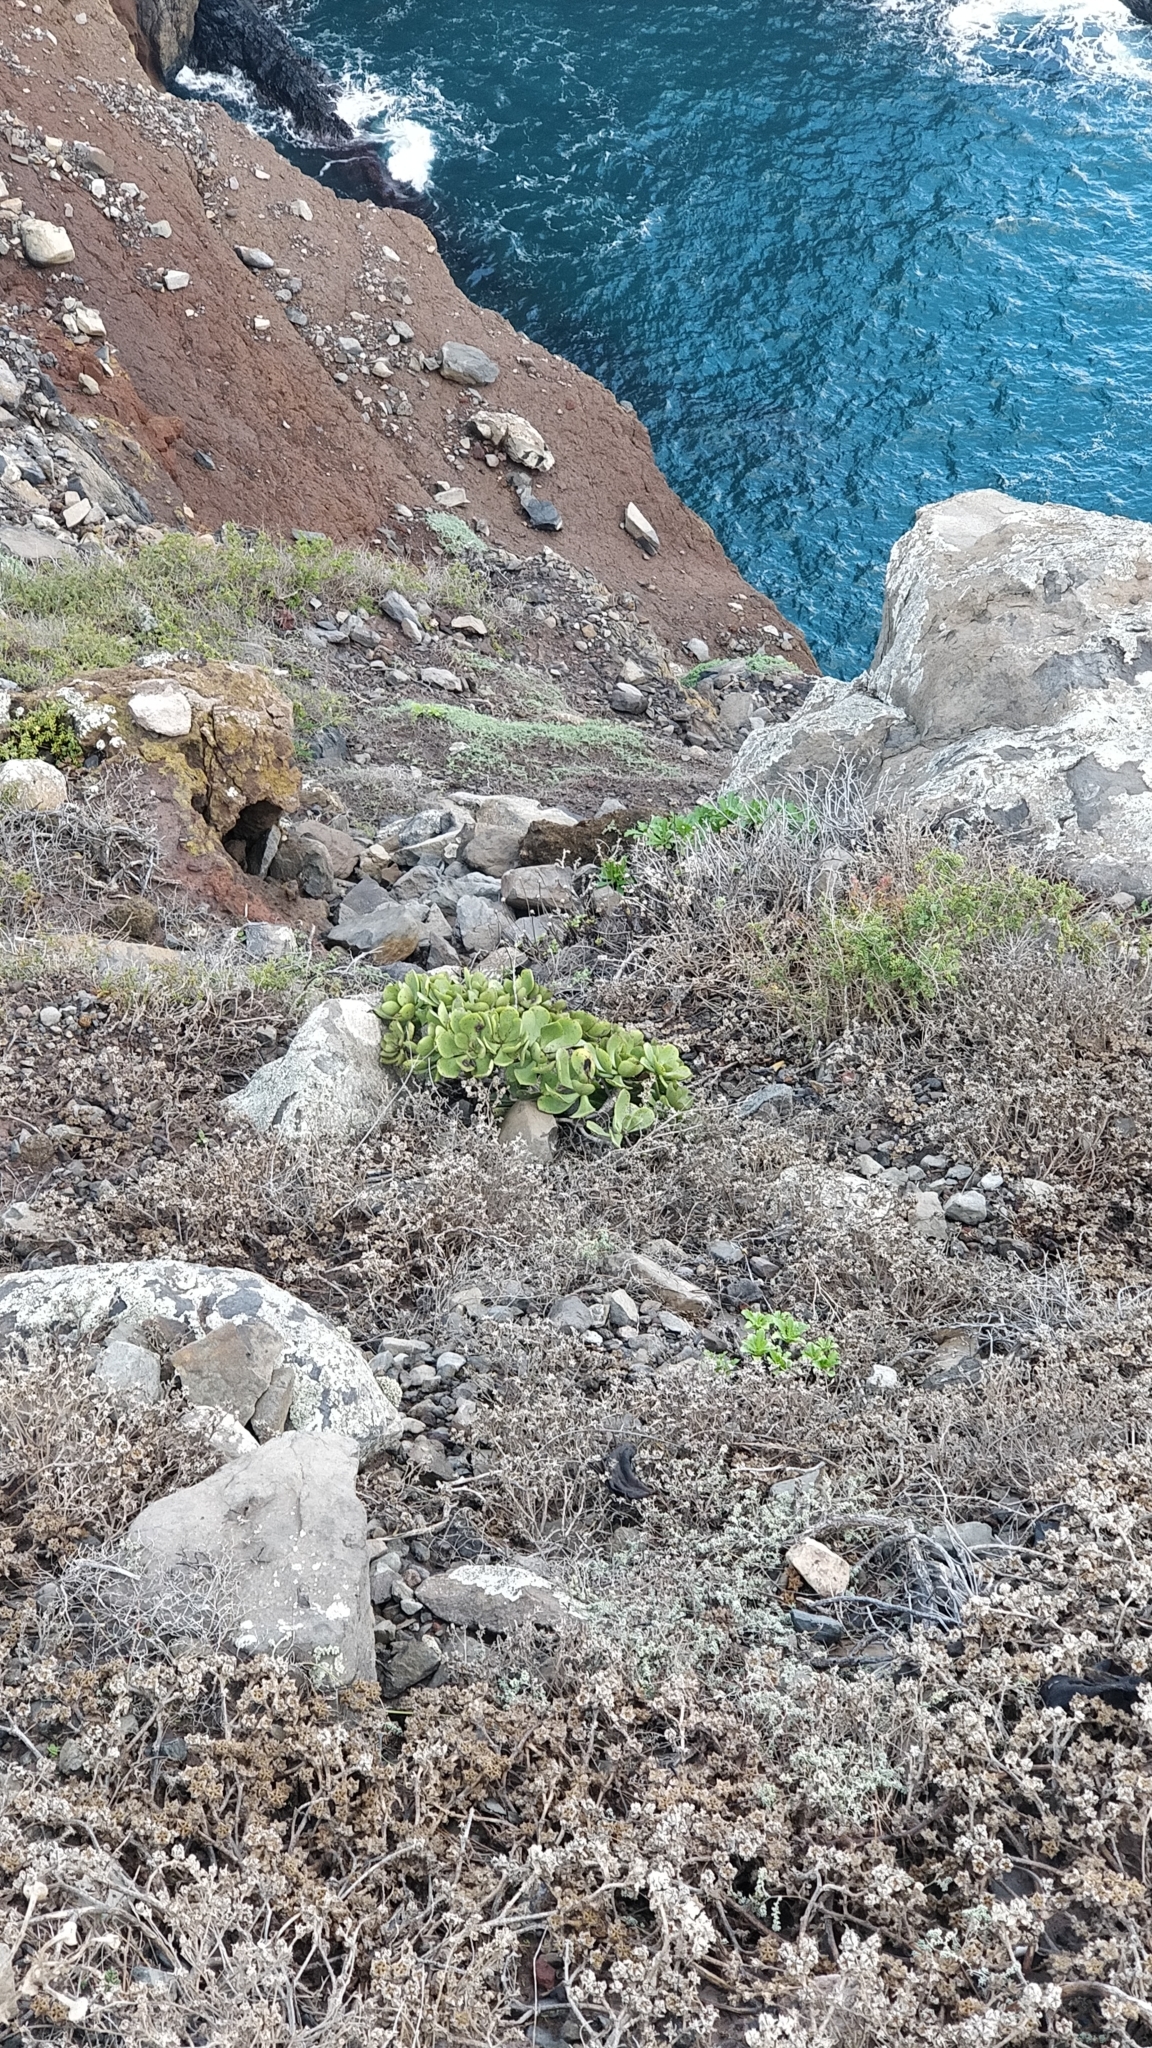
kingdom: Plantae
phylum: Tracheophyta
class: Magnoliopsida
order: Saxifragales
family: Crassulaceae
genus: Aeonium
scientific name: Aeonium glutinosum
